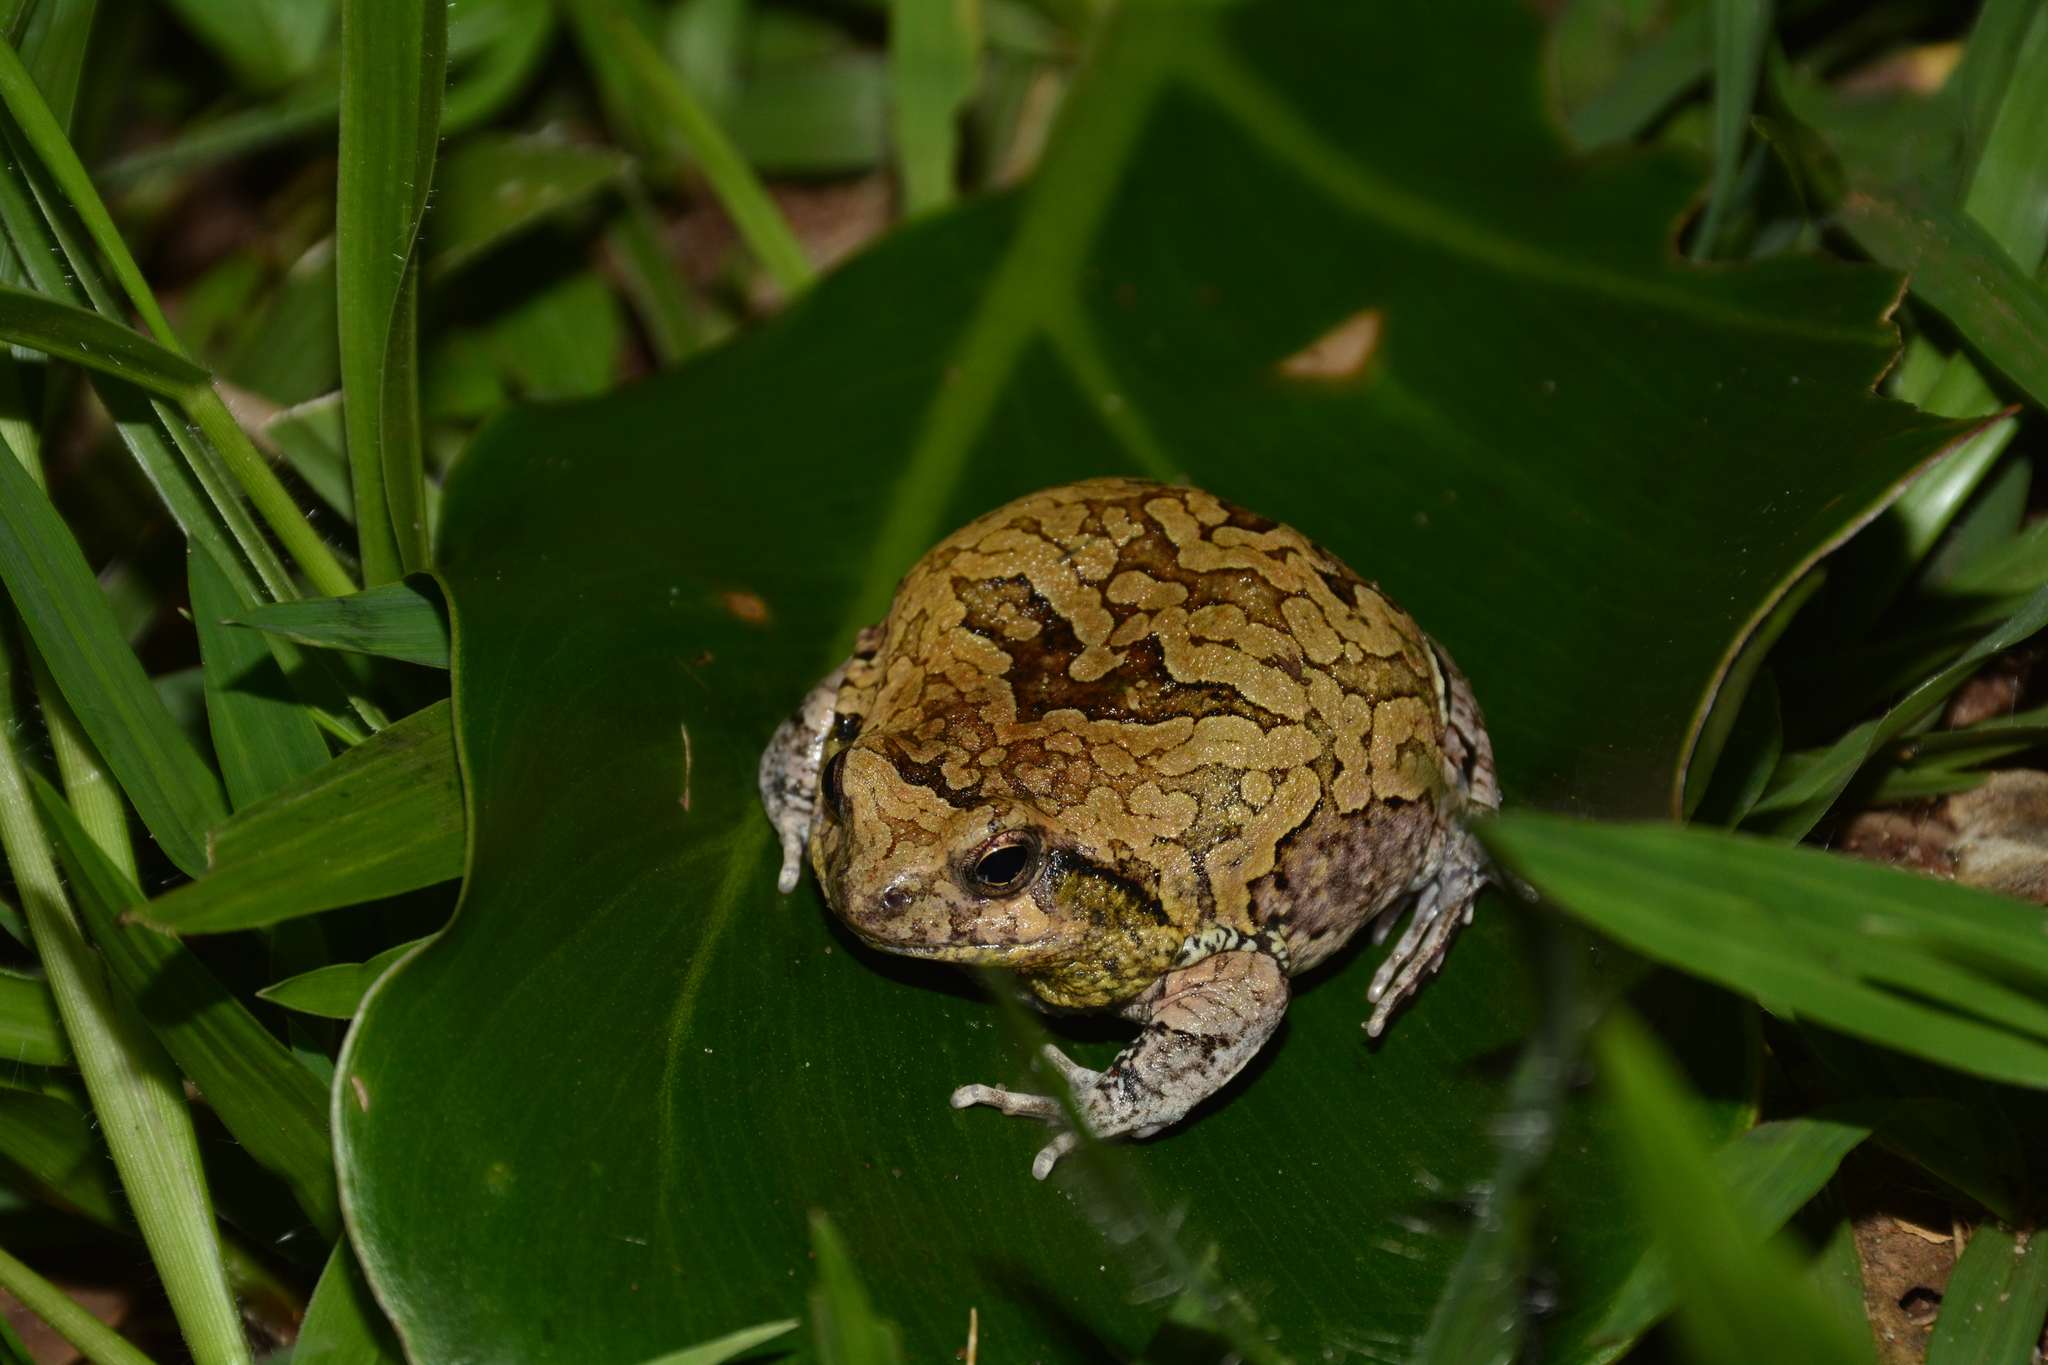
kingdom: Animalia
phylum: Chordata
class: Amphibia
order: Anura
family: Leptodactylidae
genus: Physalaemus
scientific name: Physalaemus nattereri
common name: Cuyaba dwarf frog
